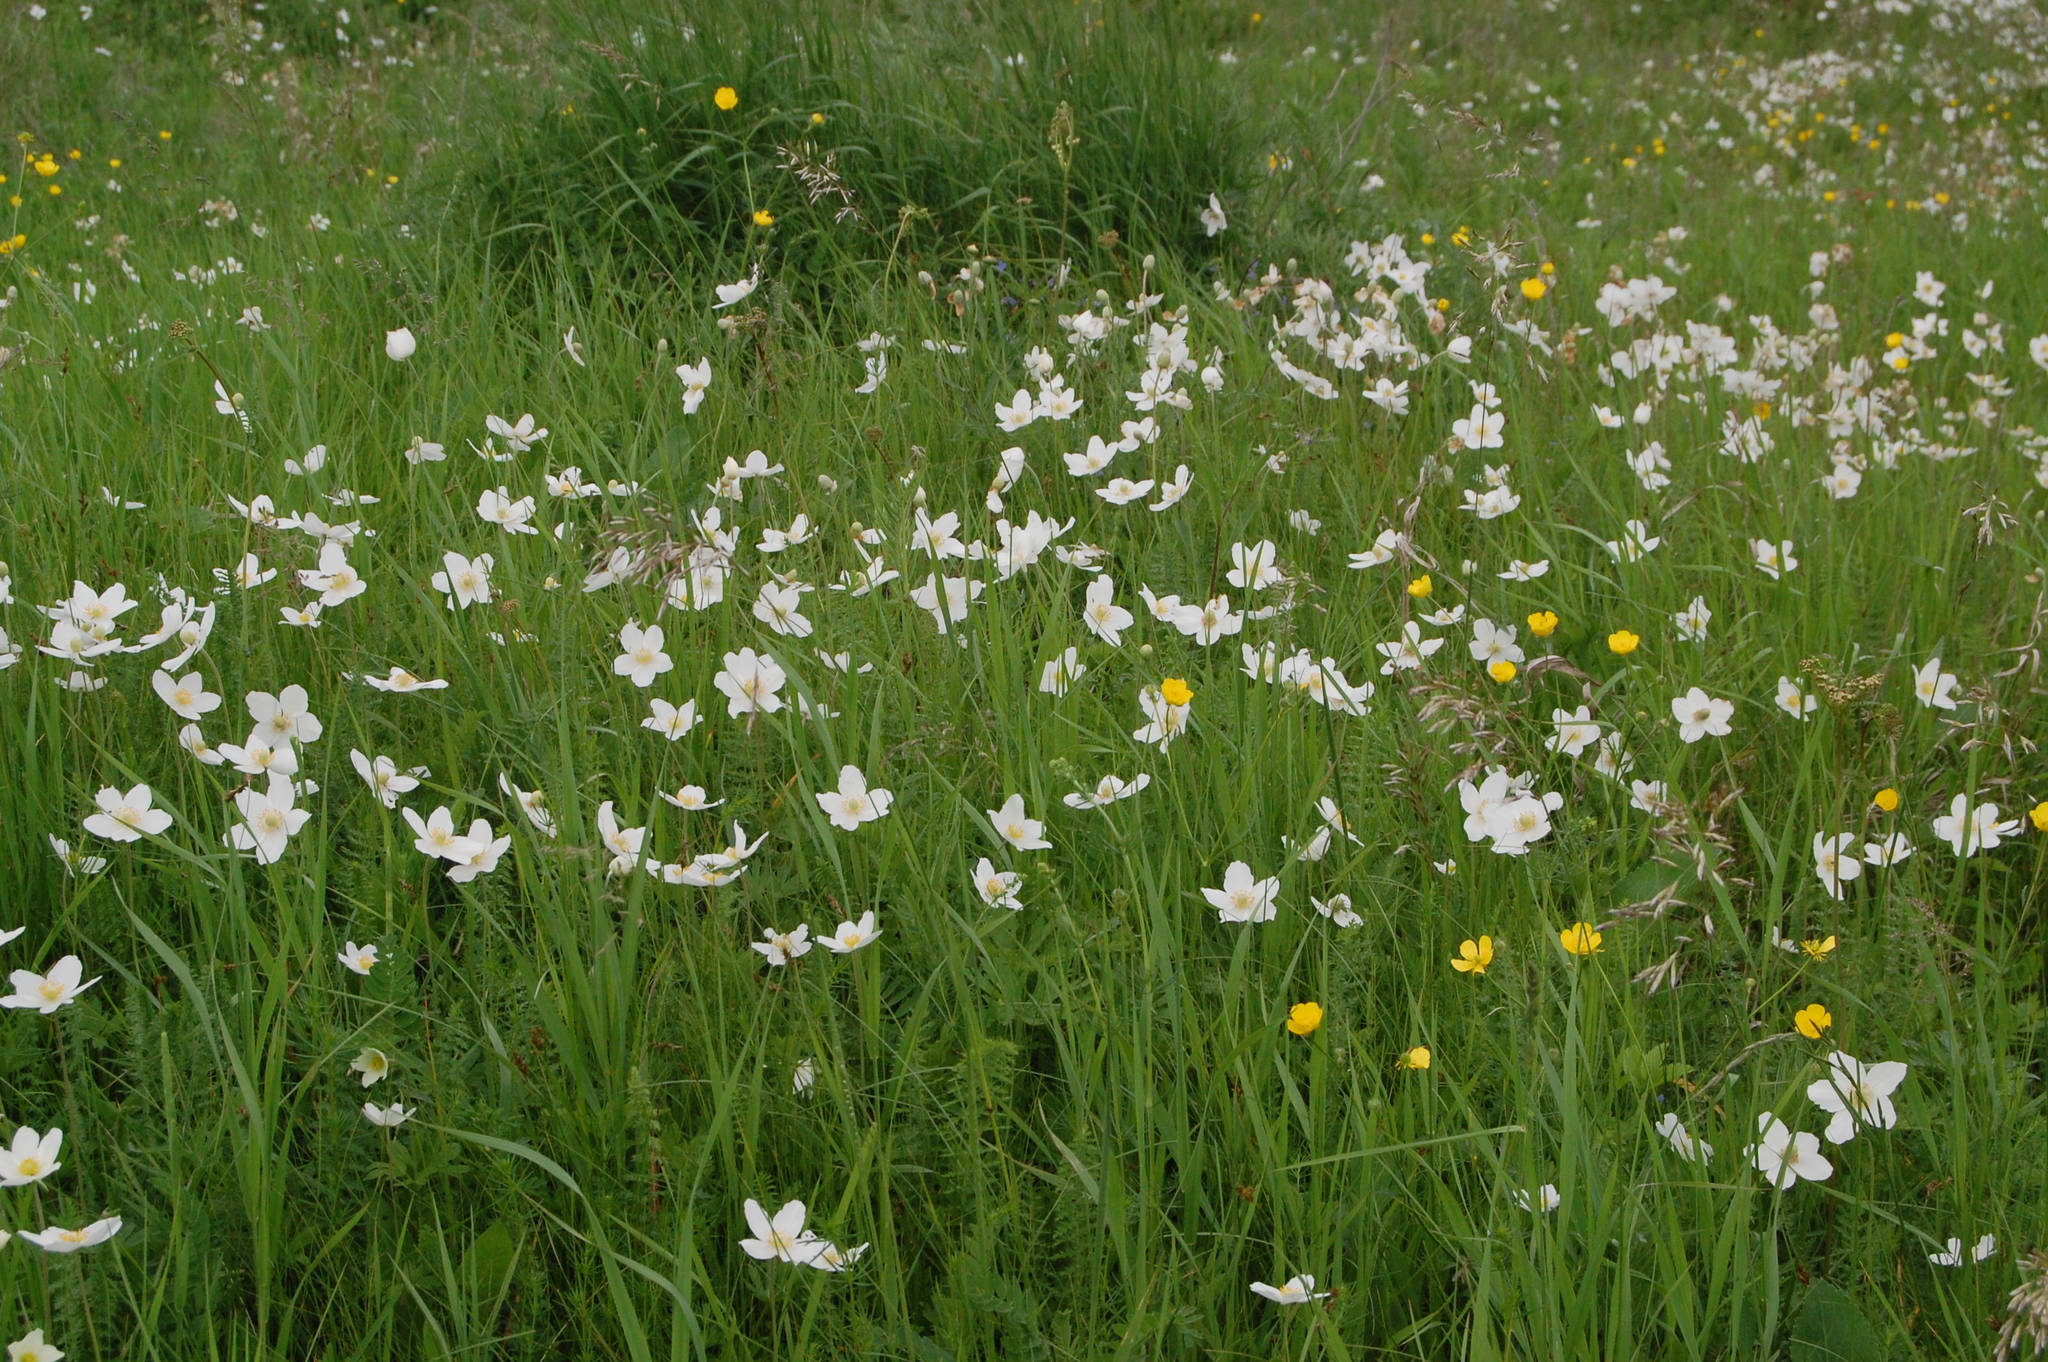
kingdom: Plantae
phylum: Tracheophyta
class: Magnoliopsida
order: Ranunculales
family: Ranunculaceae
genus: Anemone
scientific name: Anemone sylvestris
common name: Snowdrop anemone
